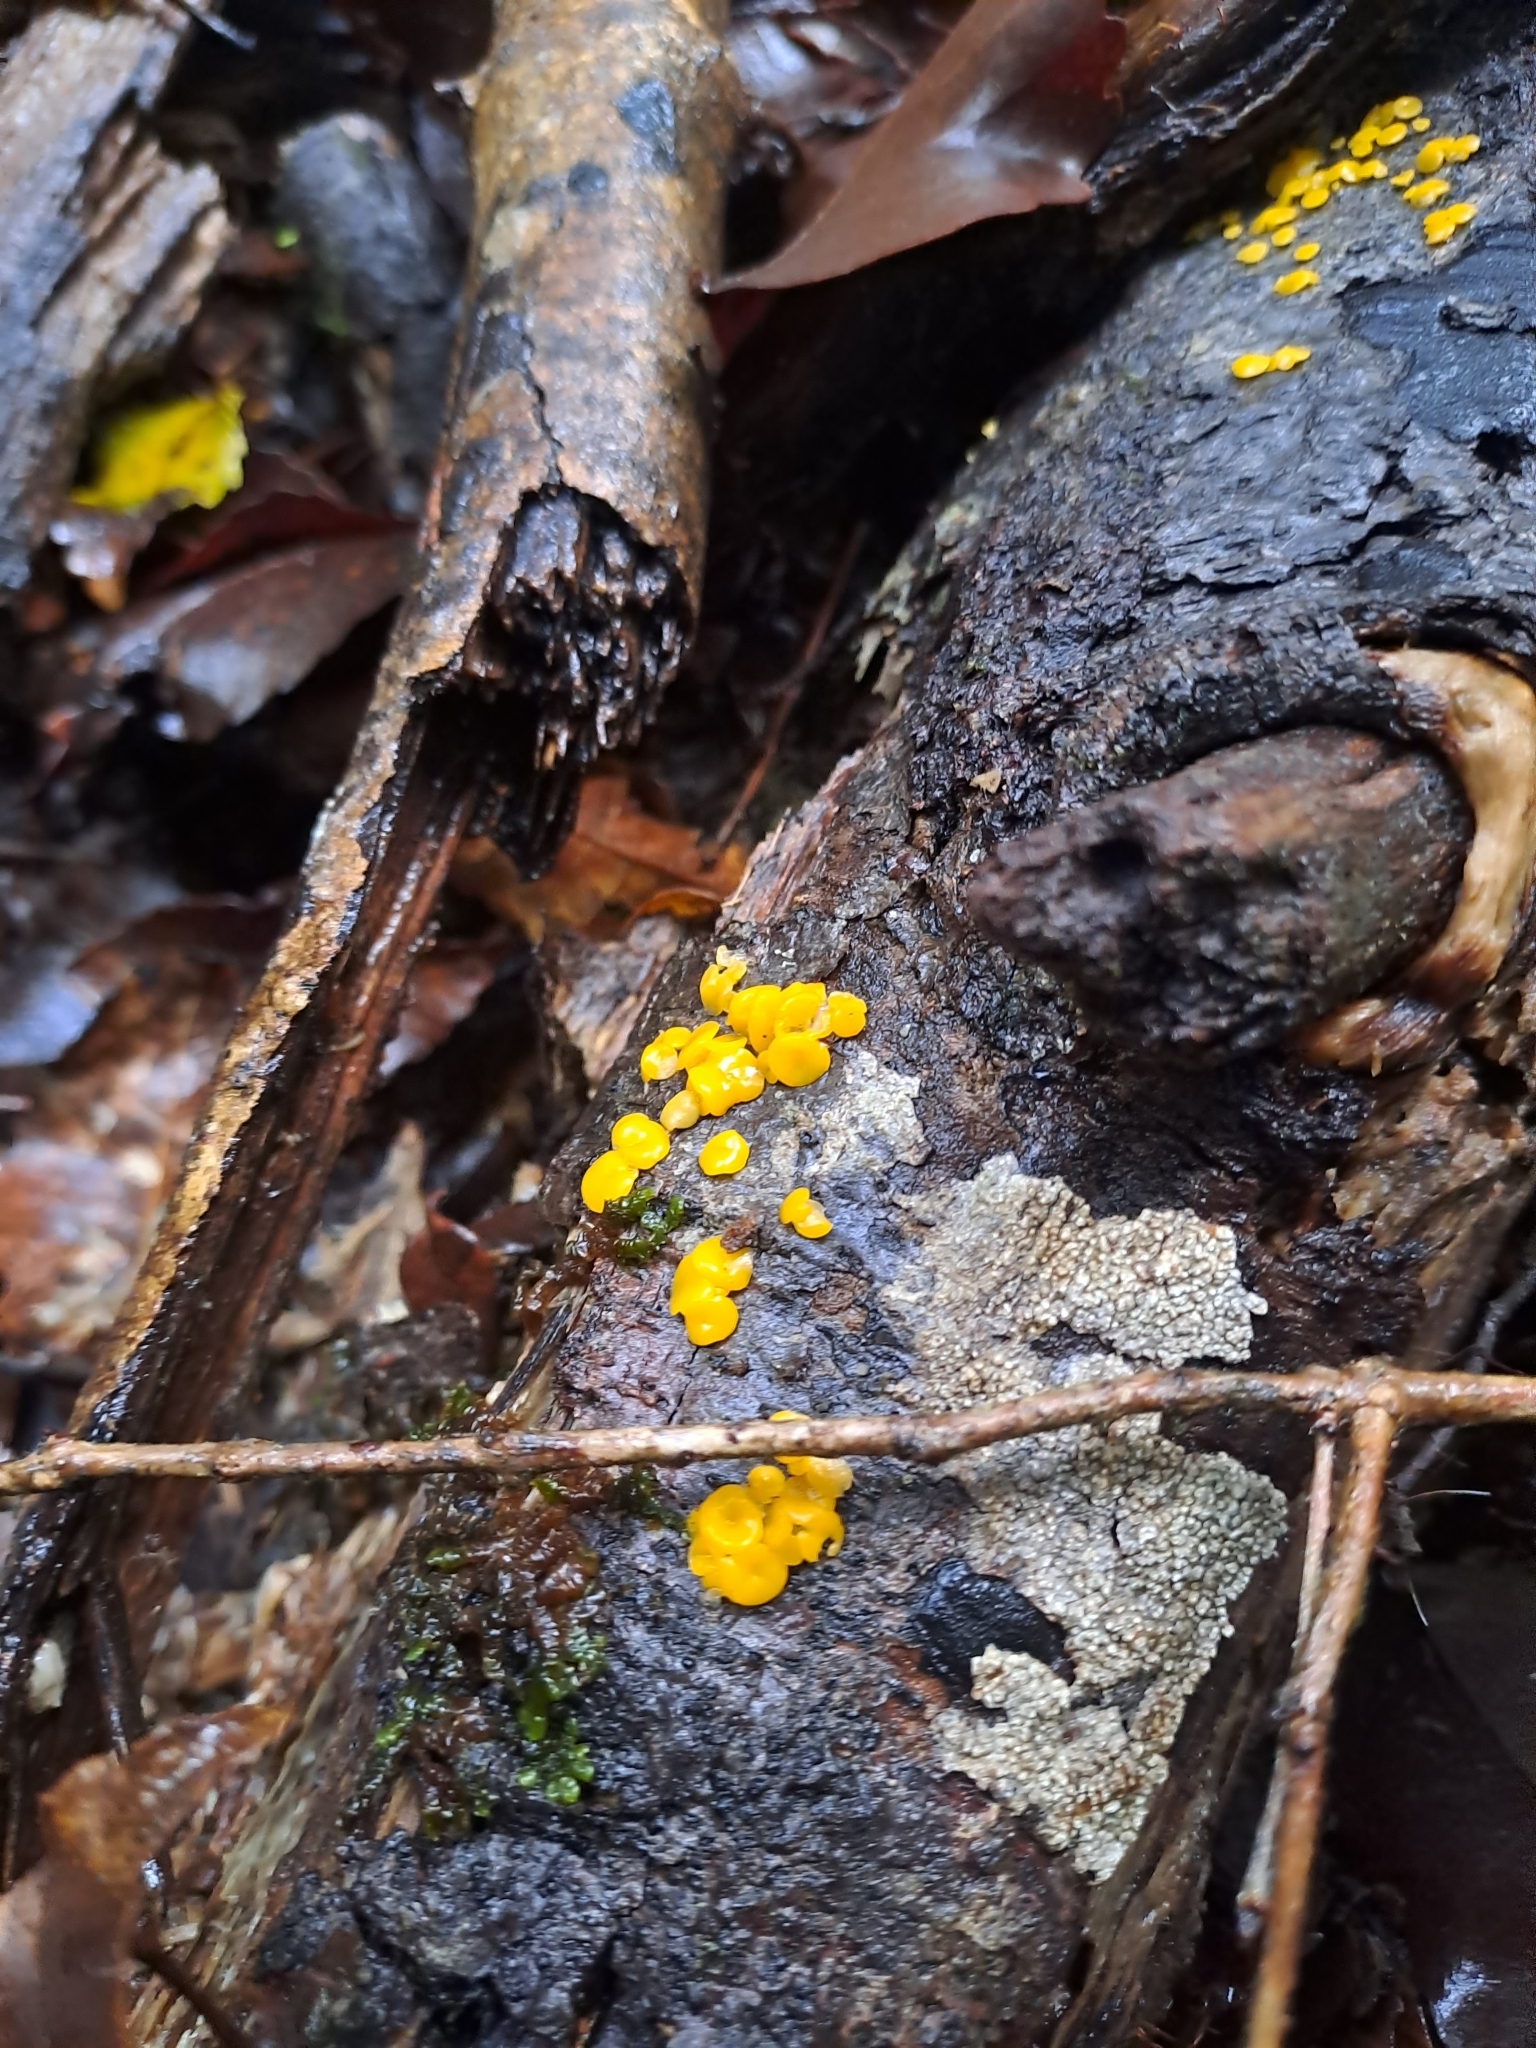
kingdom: Fungi
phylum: Ascomycota
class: Leotiomycetes
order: Helotiales
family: Pezizellaceae
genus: Calycina
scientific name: Calycina citrina
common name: Yellow fairy cups
